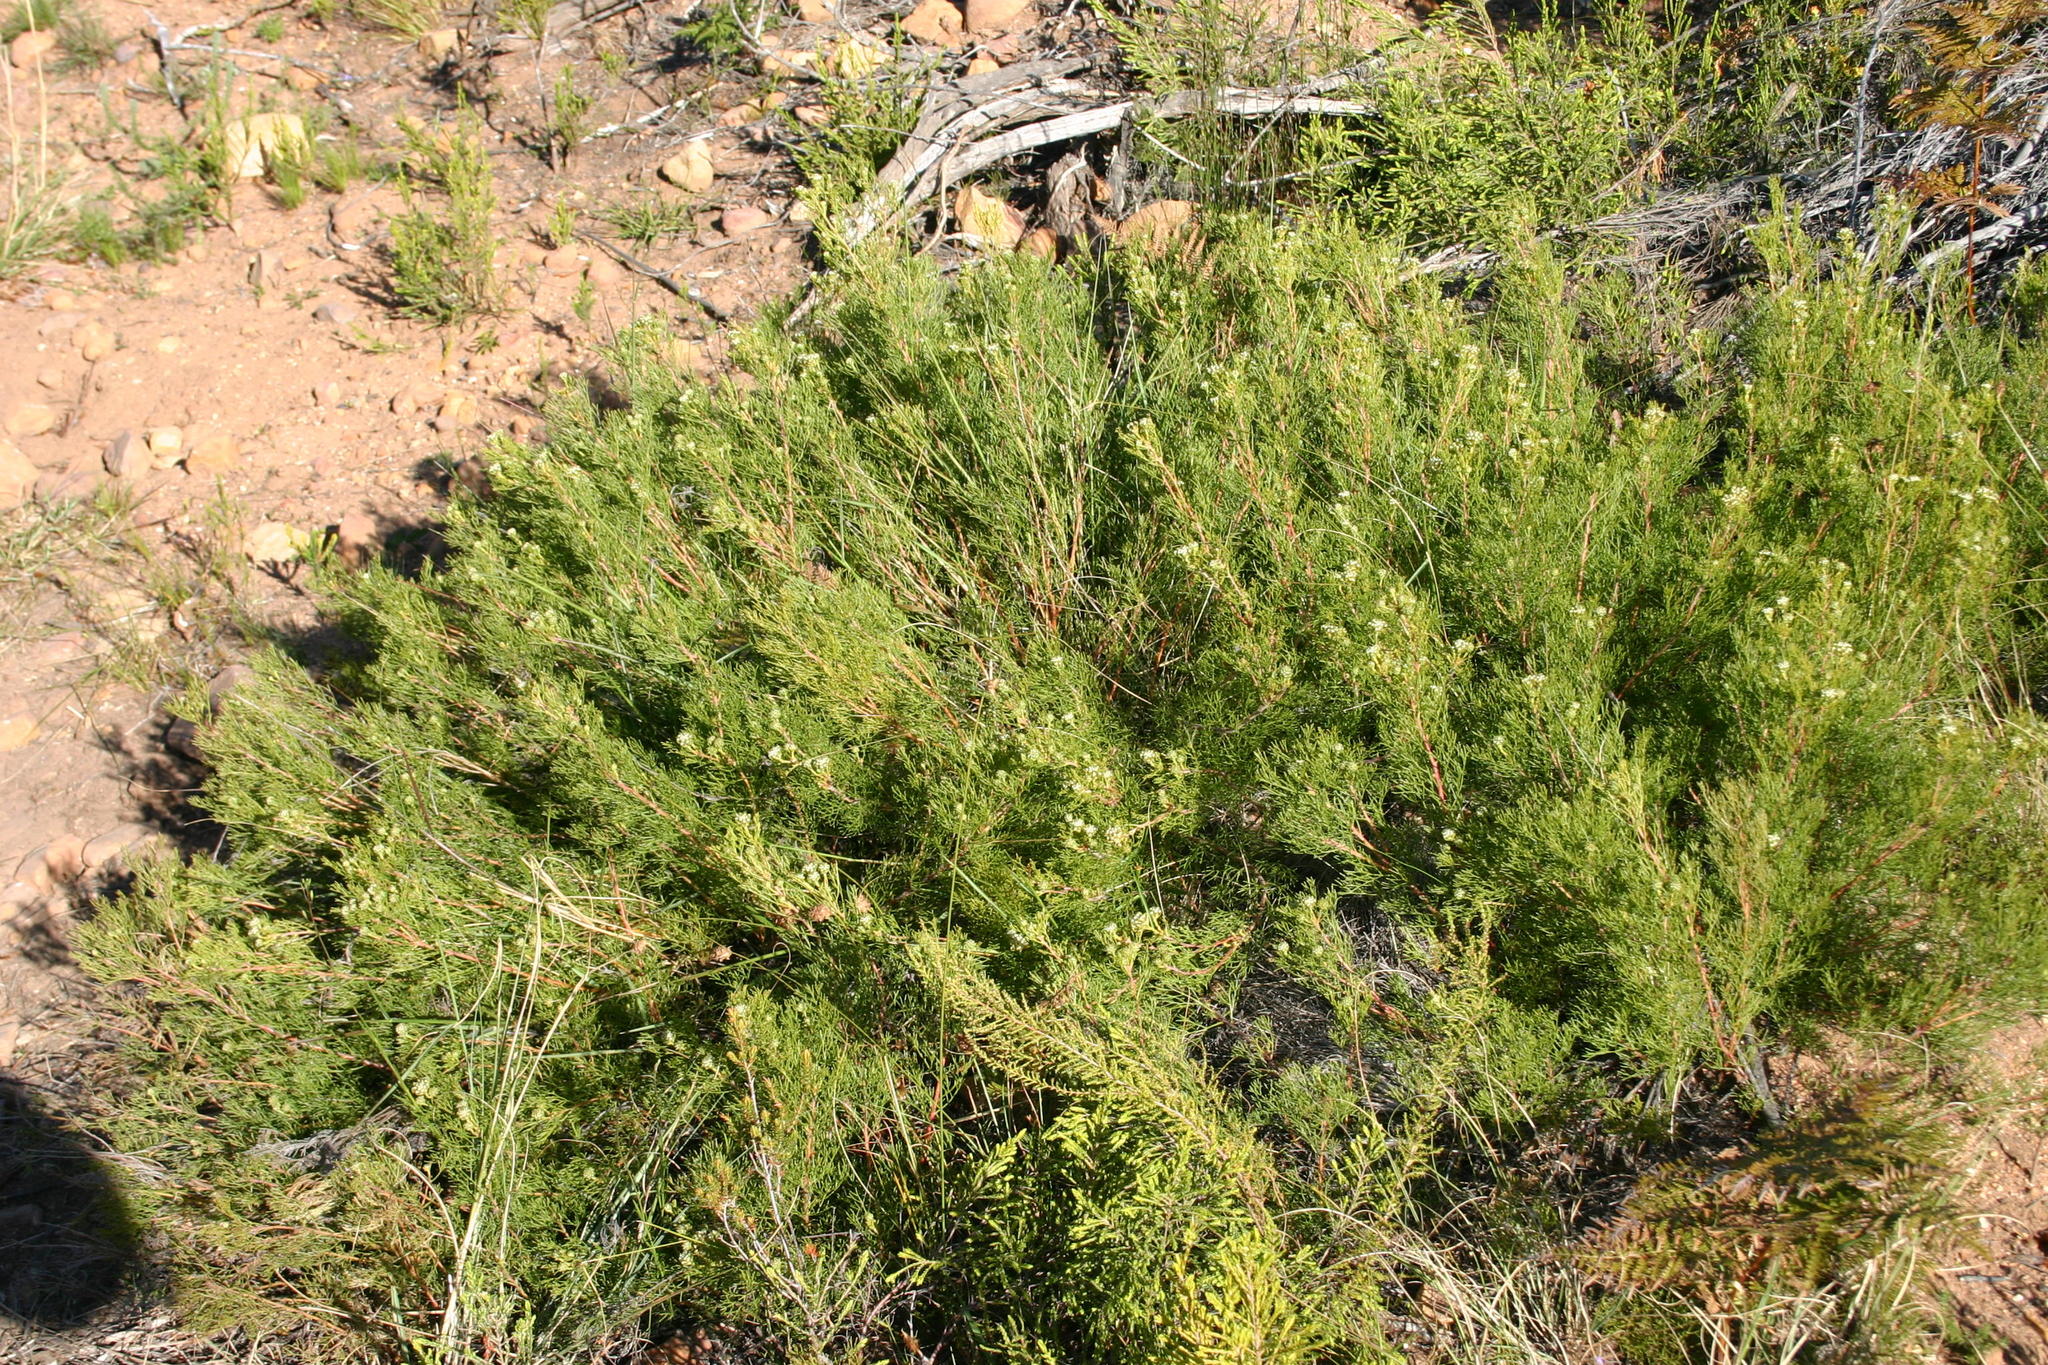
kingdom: Plantae
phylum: Tracheophyta
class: Magnoliopsida
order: Proteales
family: Proteaceae
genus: Serruria
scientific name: Serruria
